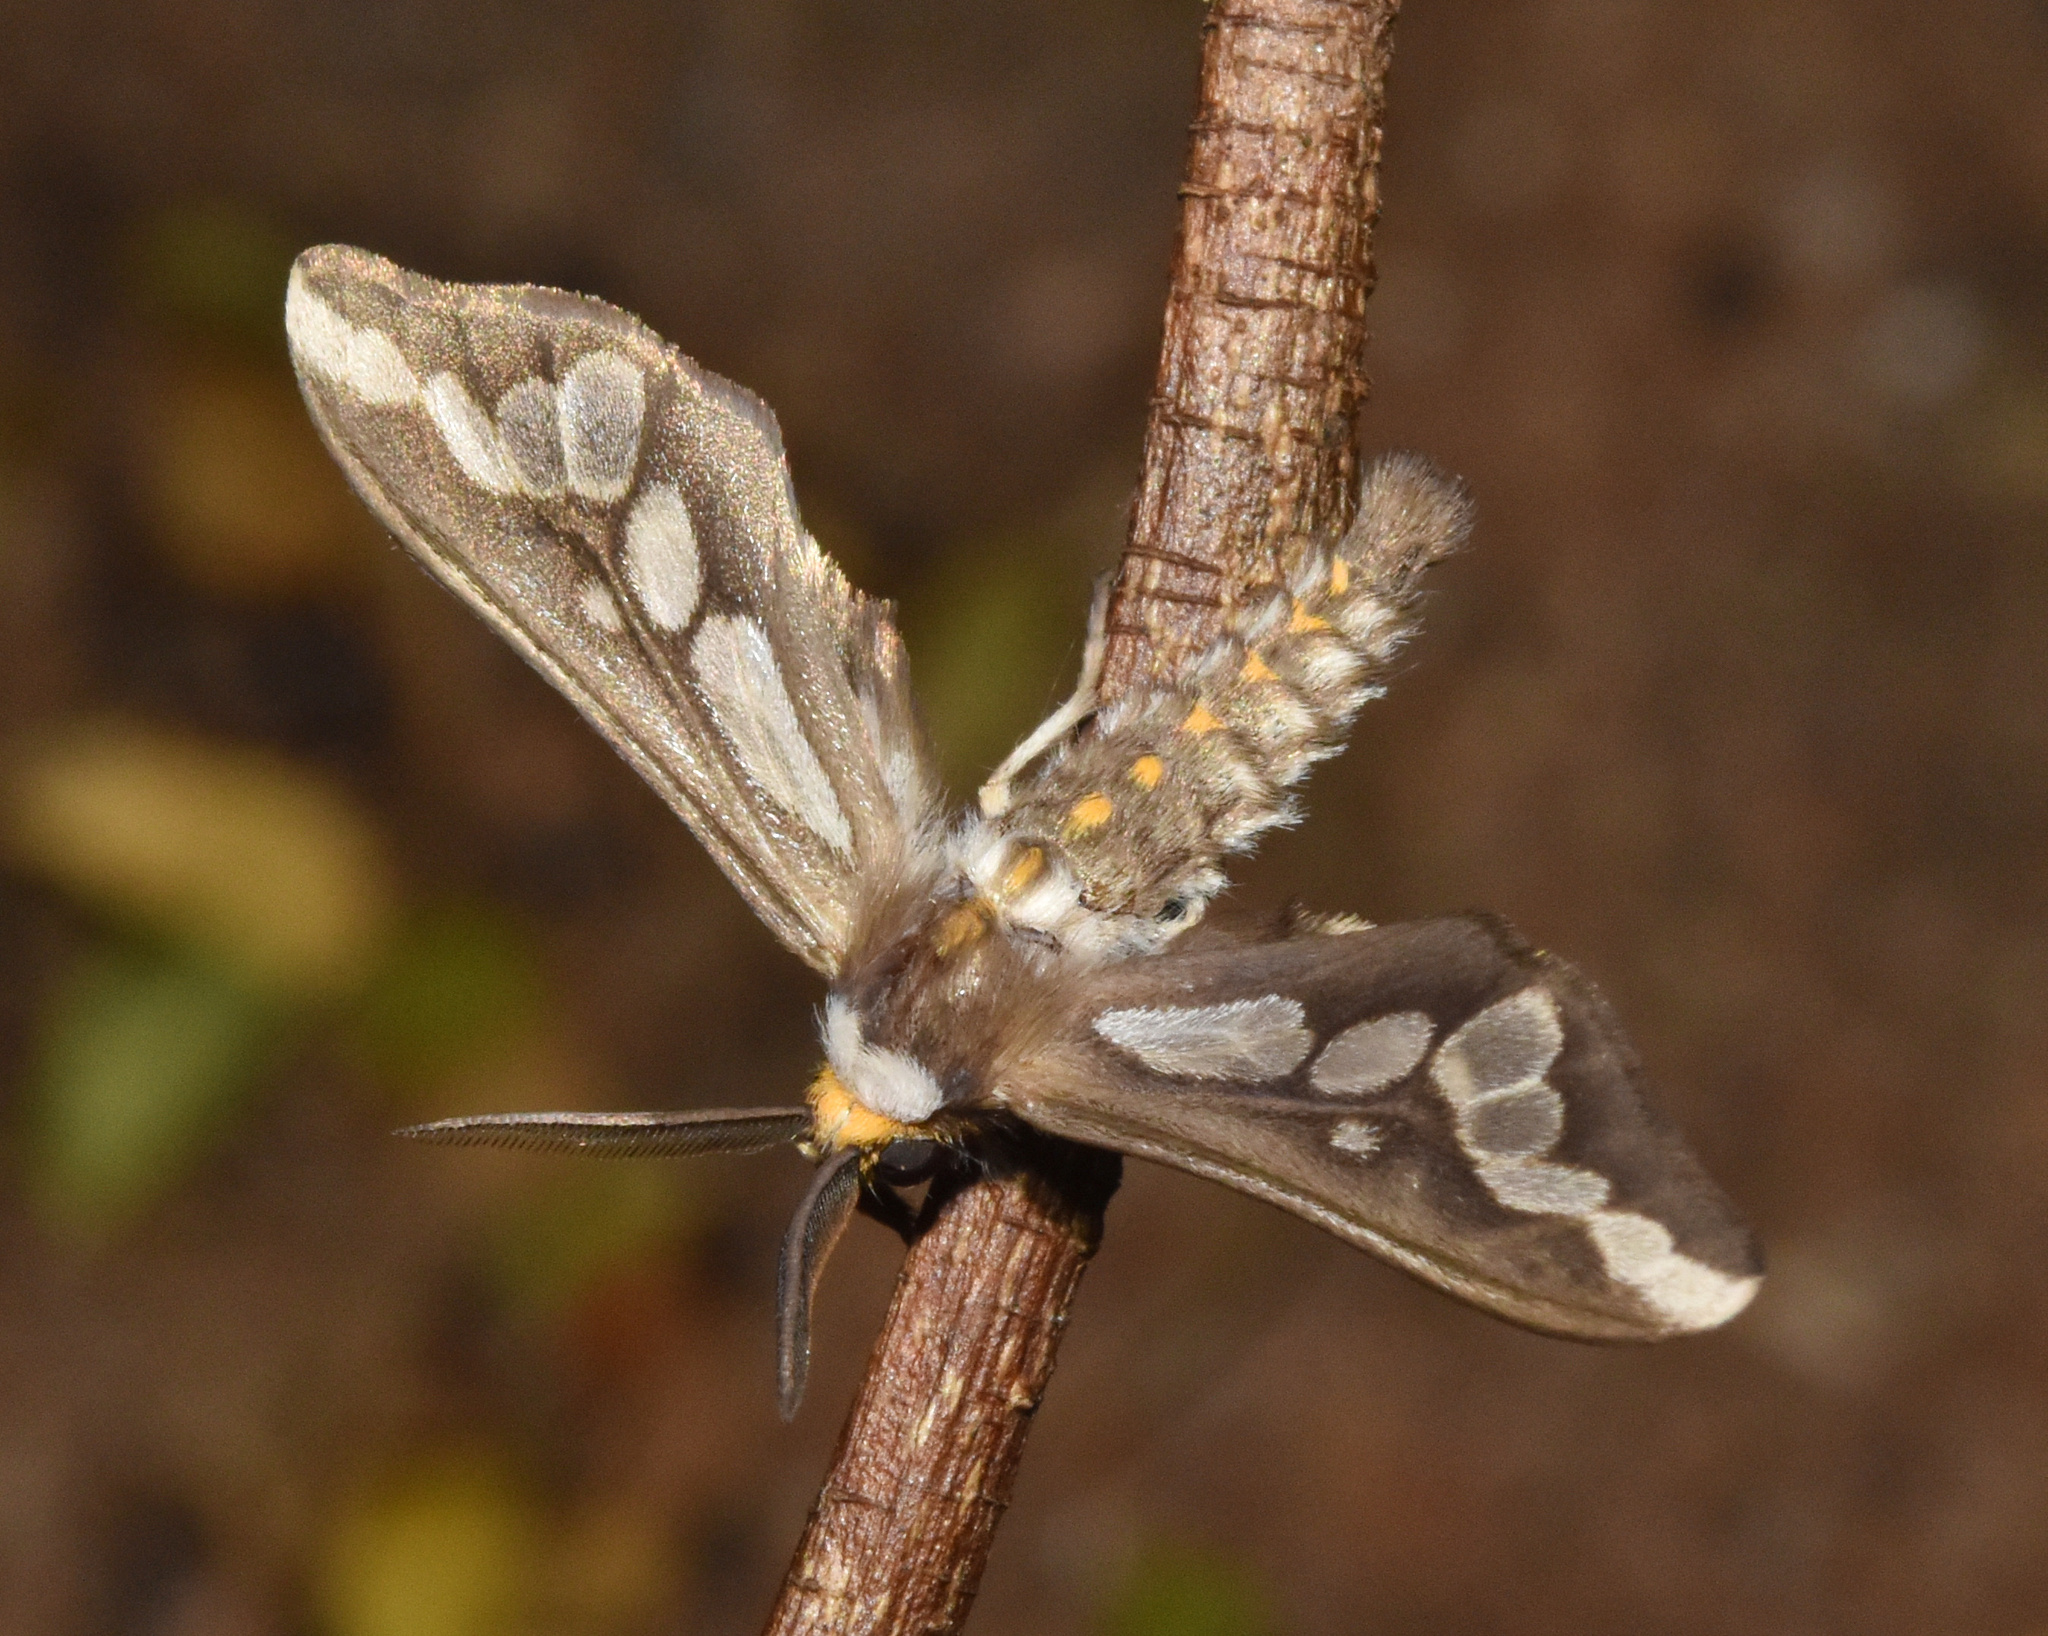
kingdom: Animalia
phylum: Arthropoda
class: Insecta
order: Lepidoptera
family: Erebidae
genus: Thyretes
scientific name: Thyretes caffra
